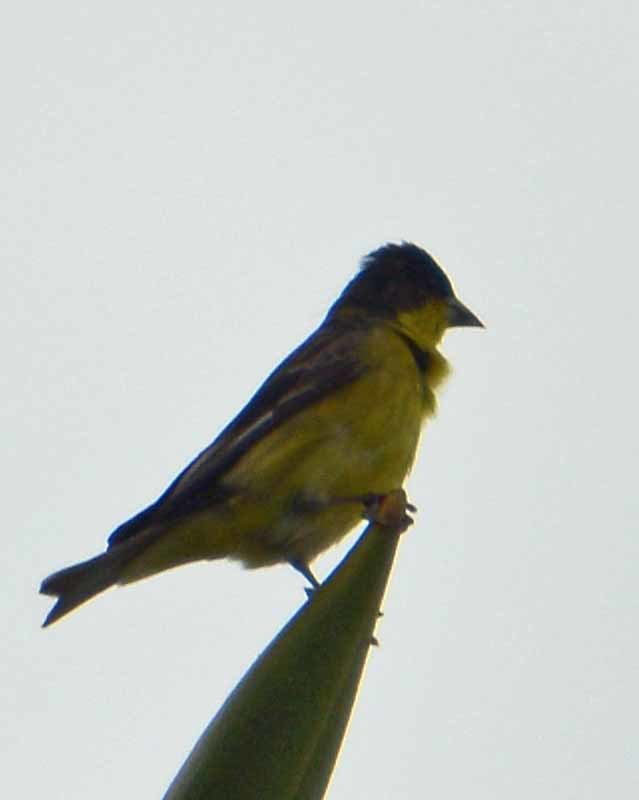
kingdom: Animalia
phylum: Chordata
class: Aves
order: Passeriformes
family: Fringillidae
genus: Spinus
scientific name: Spinus psaltria
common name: Lesser goldfinch
